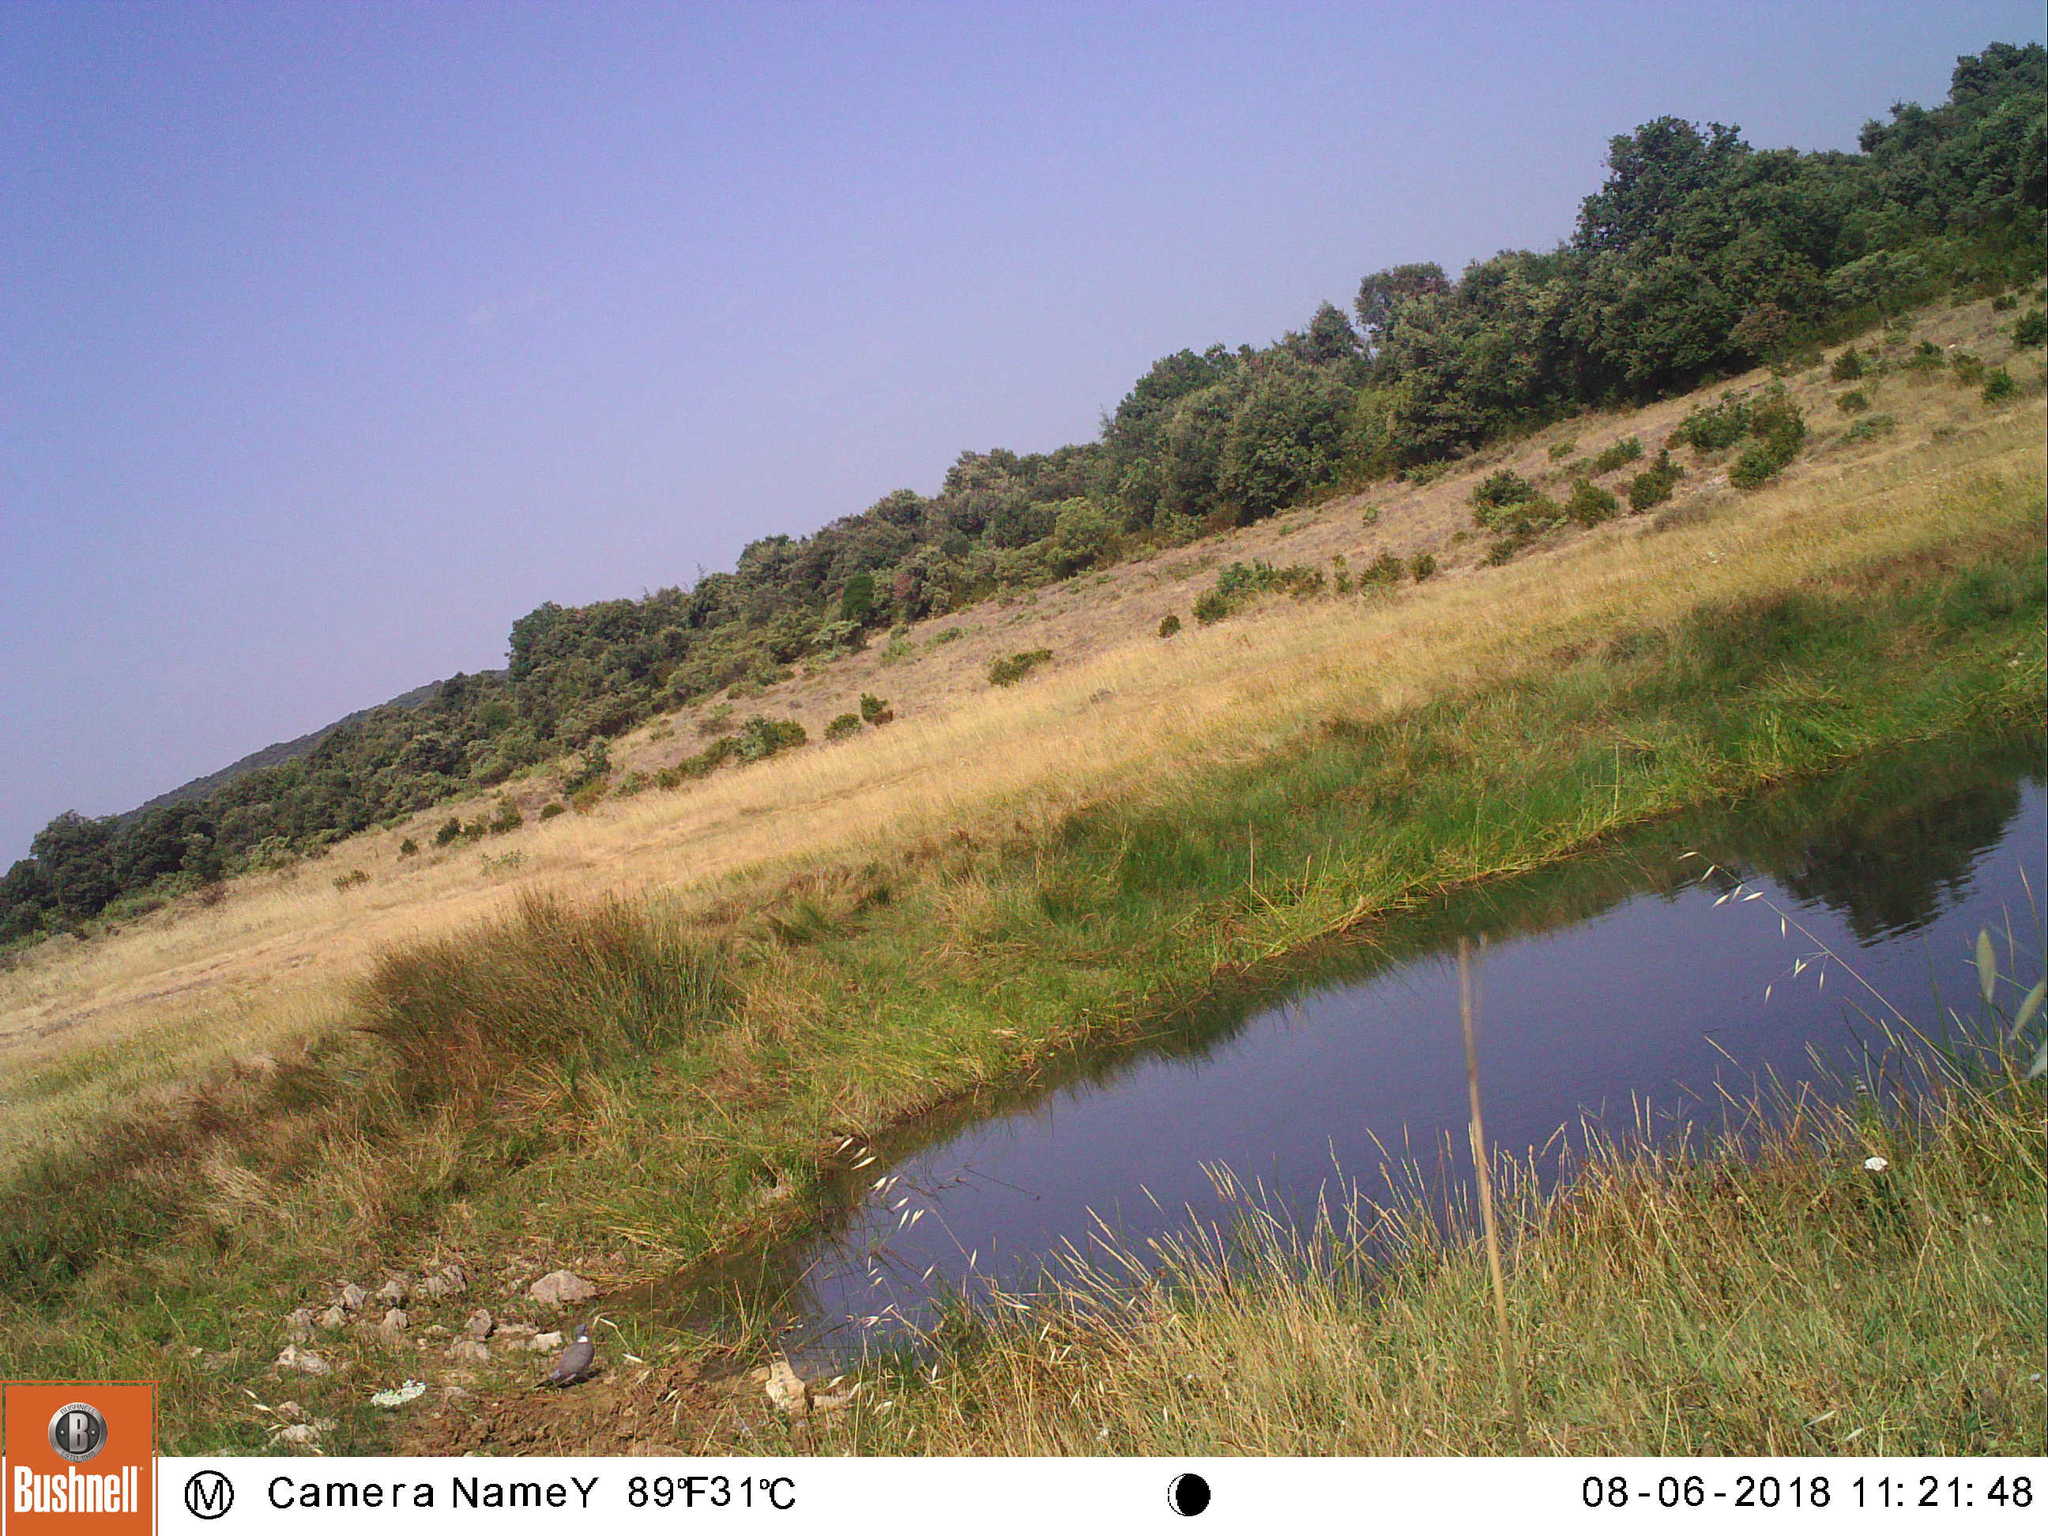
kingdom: Animalia
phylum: Chordata
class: Aves
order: Columbiformes
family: Columbidae
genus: Columba
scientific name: Columba palumbus
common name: Common wood pigeon
